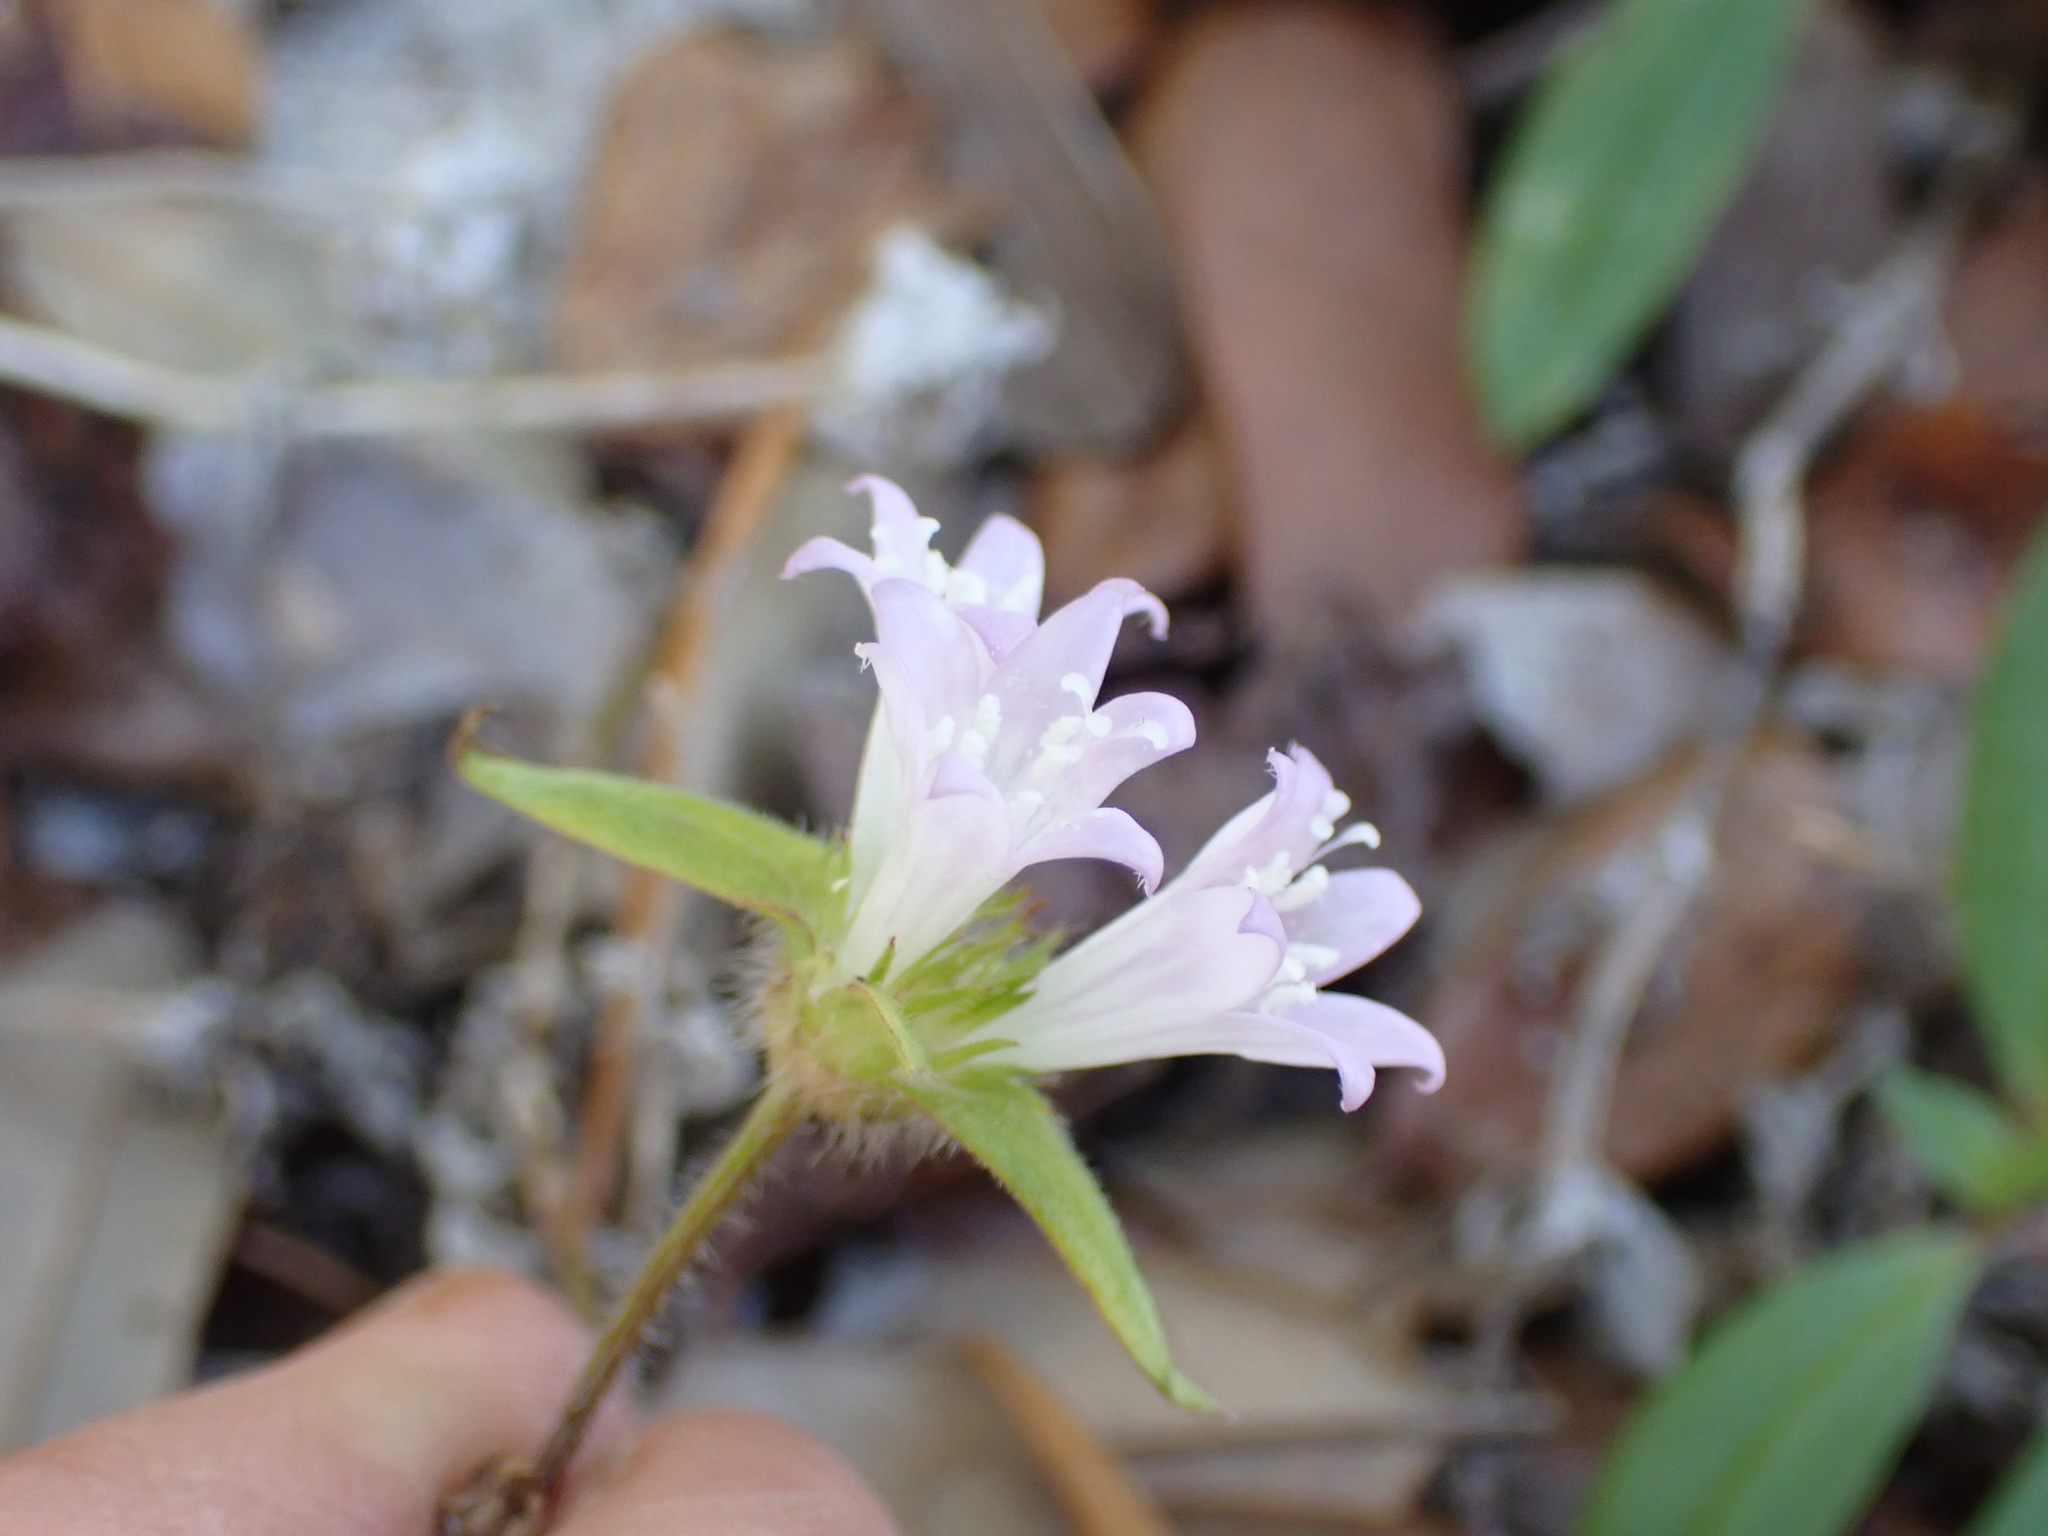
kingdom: Plantae
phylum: Tracheophyta
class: Magnoliopsida
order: Gentianales
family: Rubiaceae
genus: Richardia
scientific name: Richardia grandiflora
